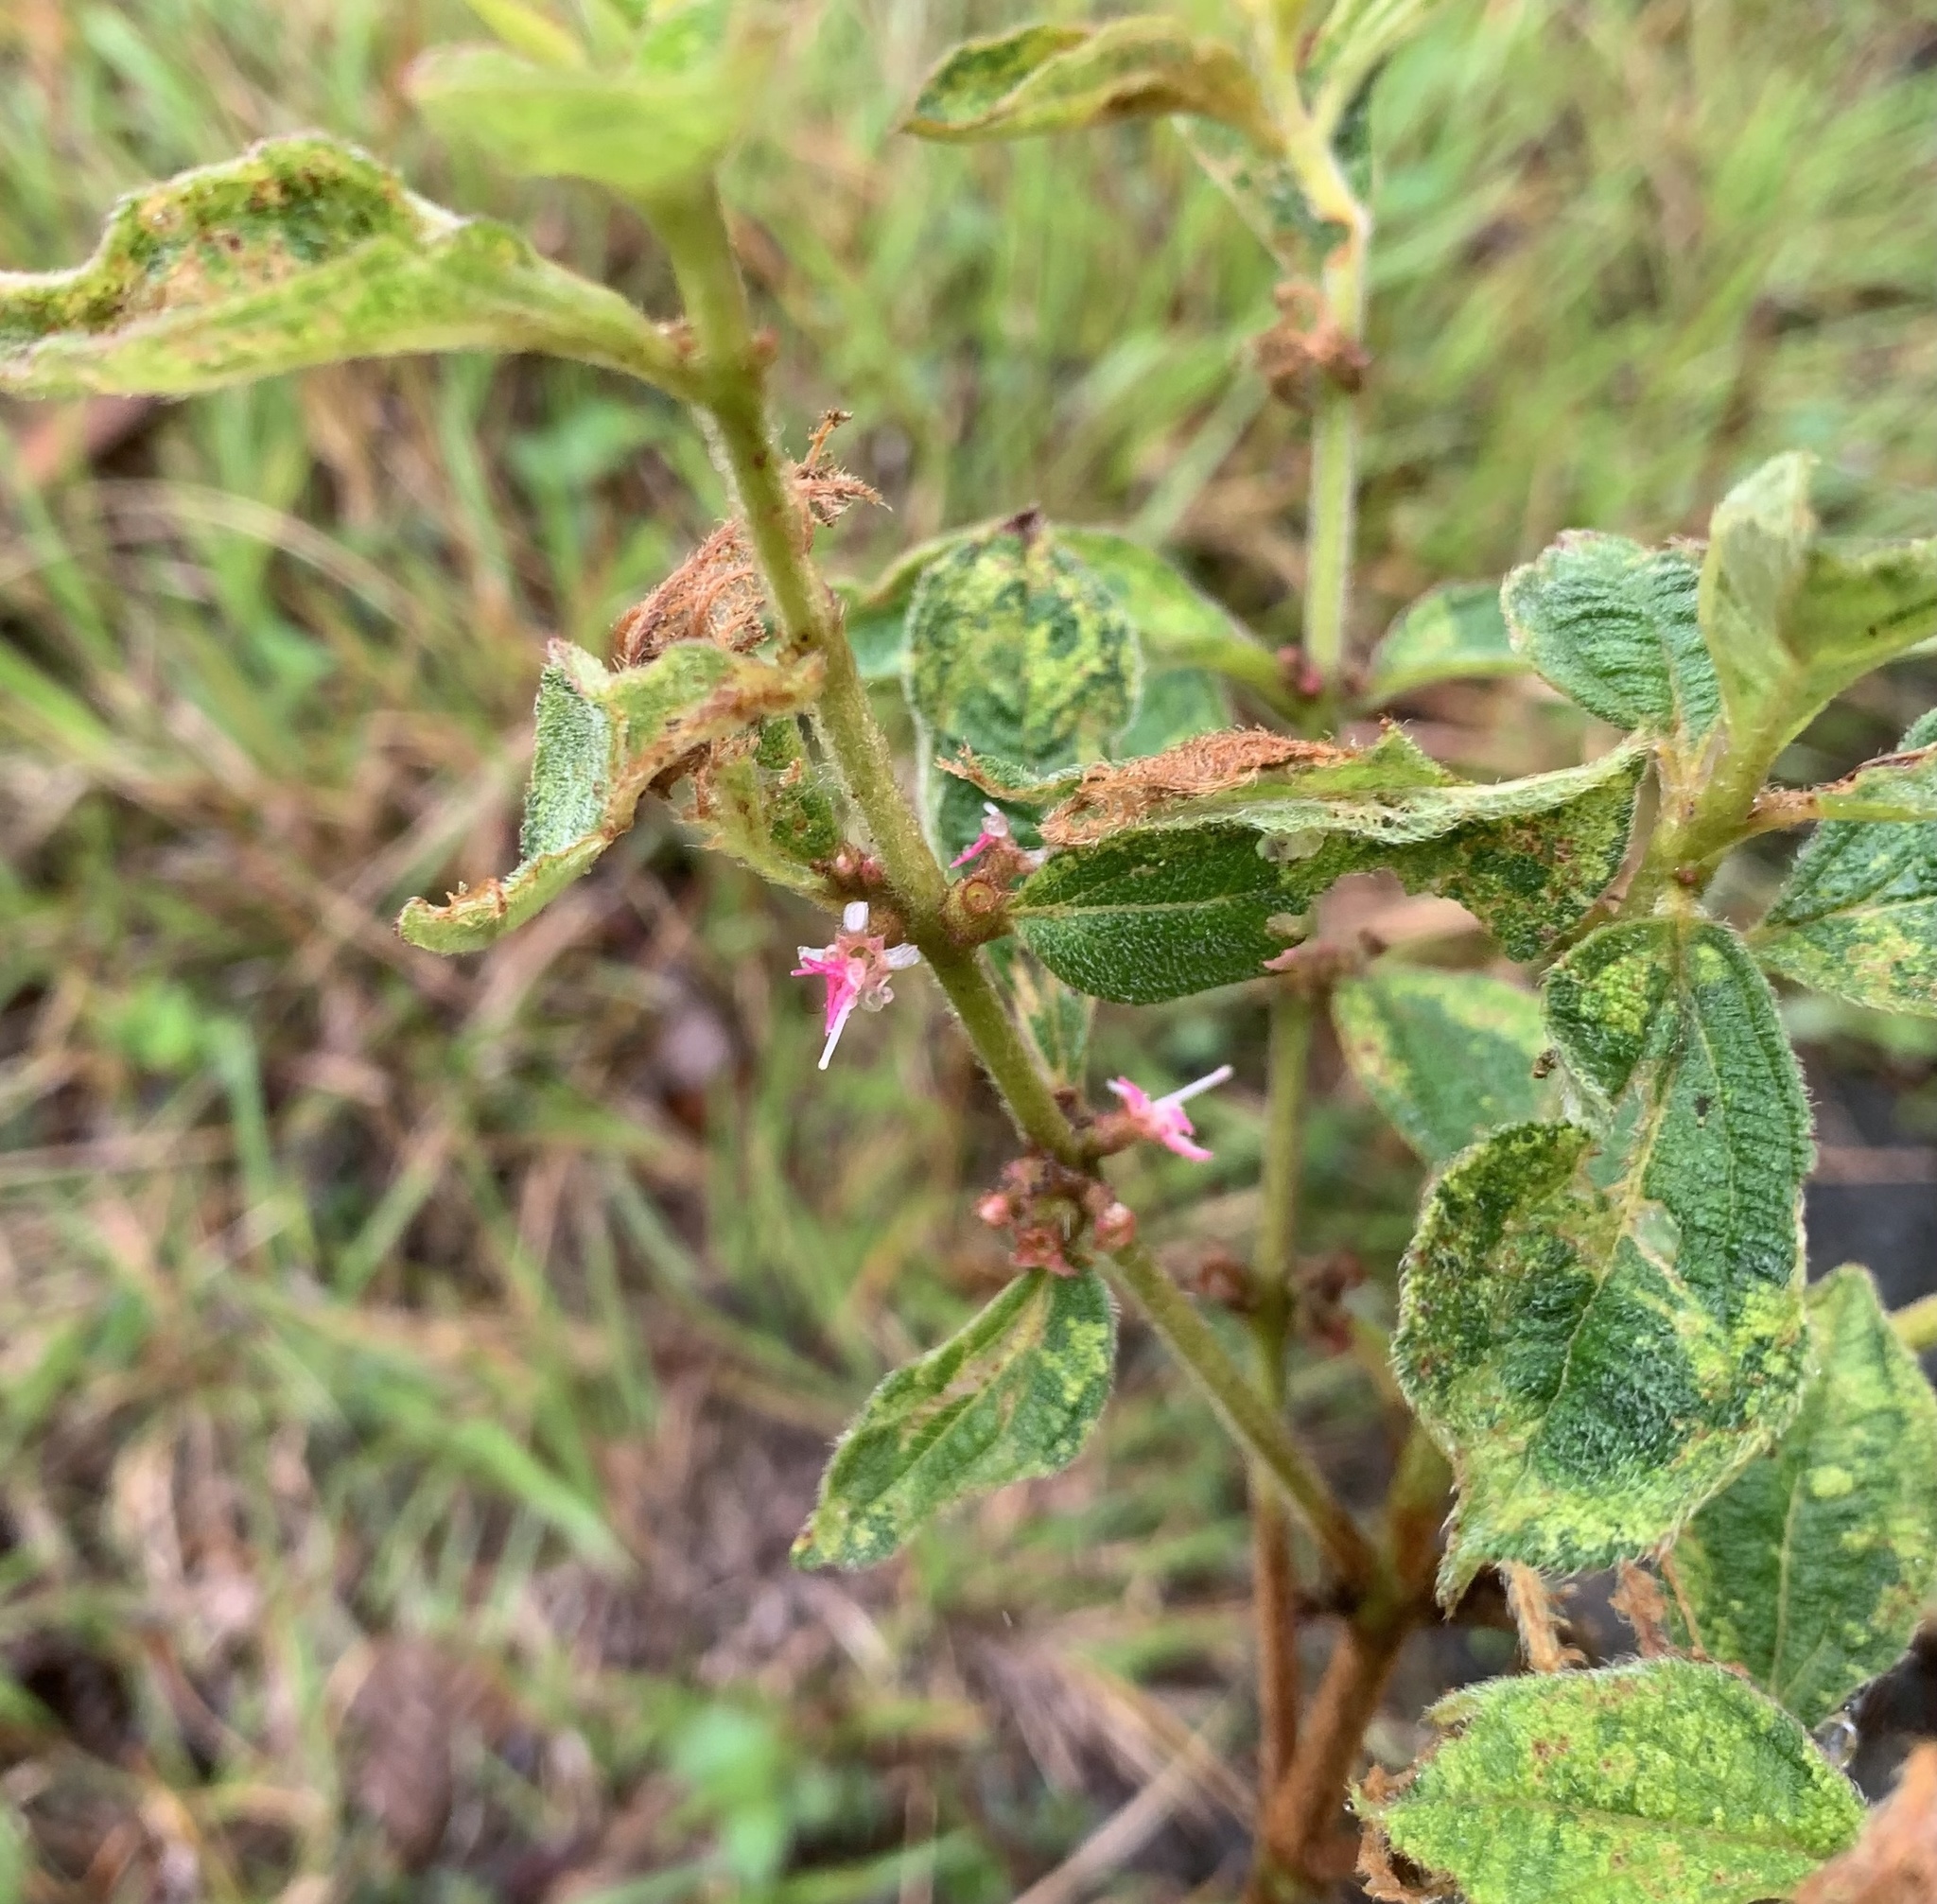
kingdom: Plantae
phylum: Tracheophyta
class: Magnoliopsida
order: Myrtales
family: Melastomataceae
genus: Miconia
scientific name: Miconia sericea
